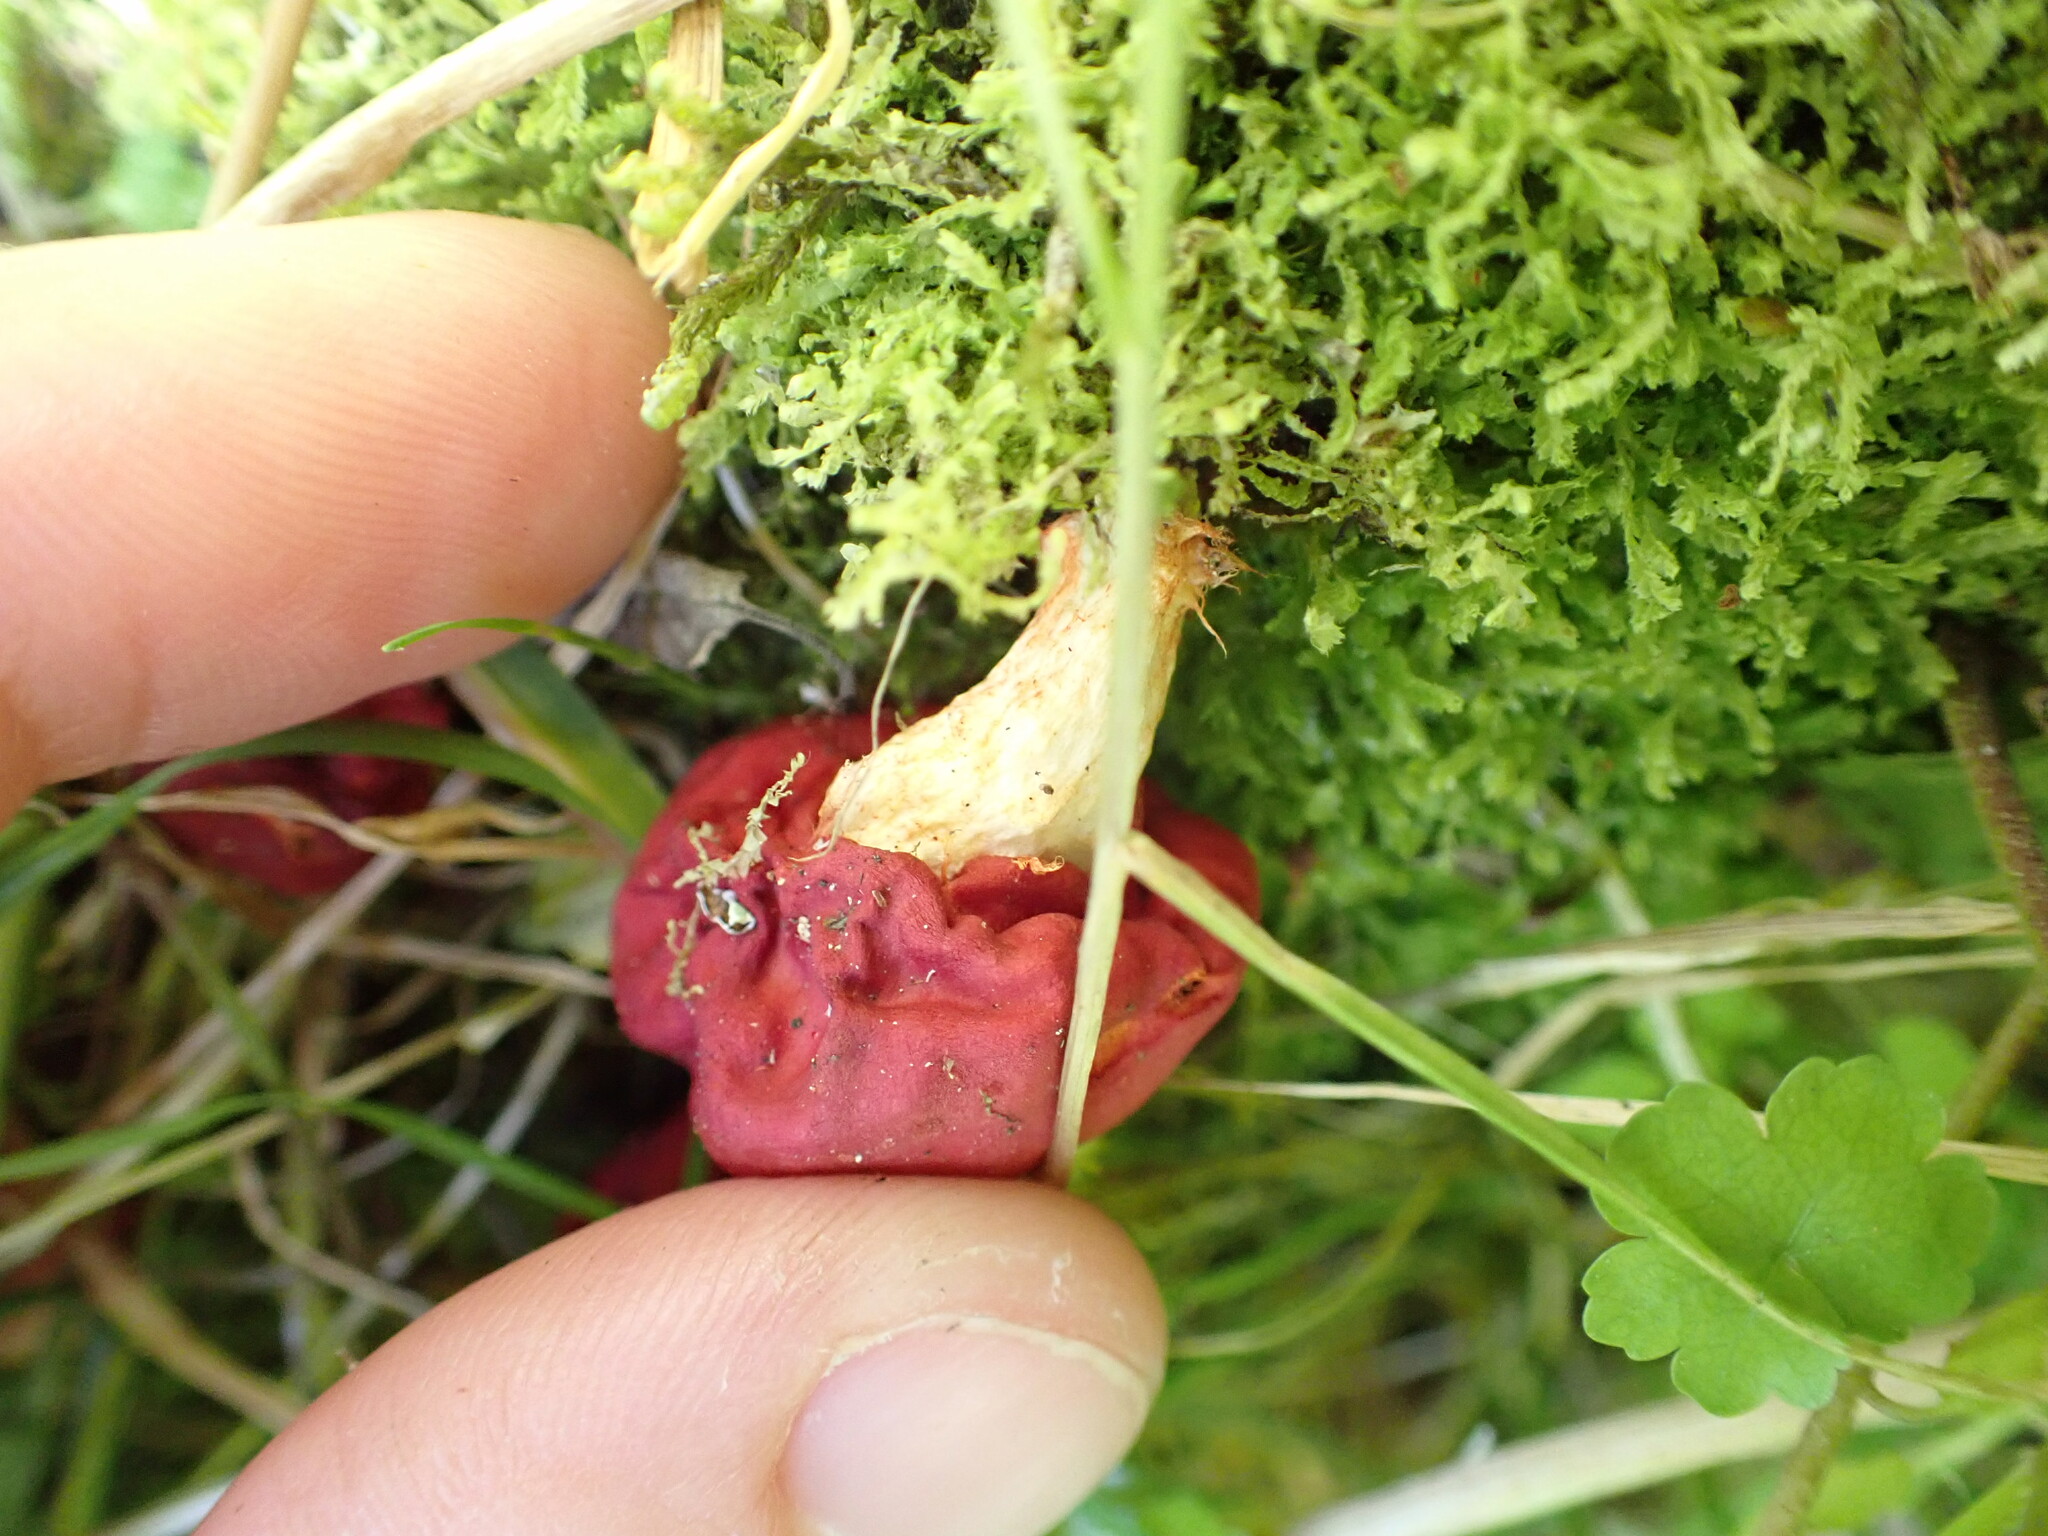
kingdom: Fungi
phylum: Basidiomycota
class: Agaricomycetes
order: Agaricales
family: Strophariaceae
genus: Leratiomyces
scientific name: Leratiomyces erythrocephalus
